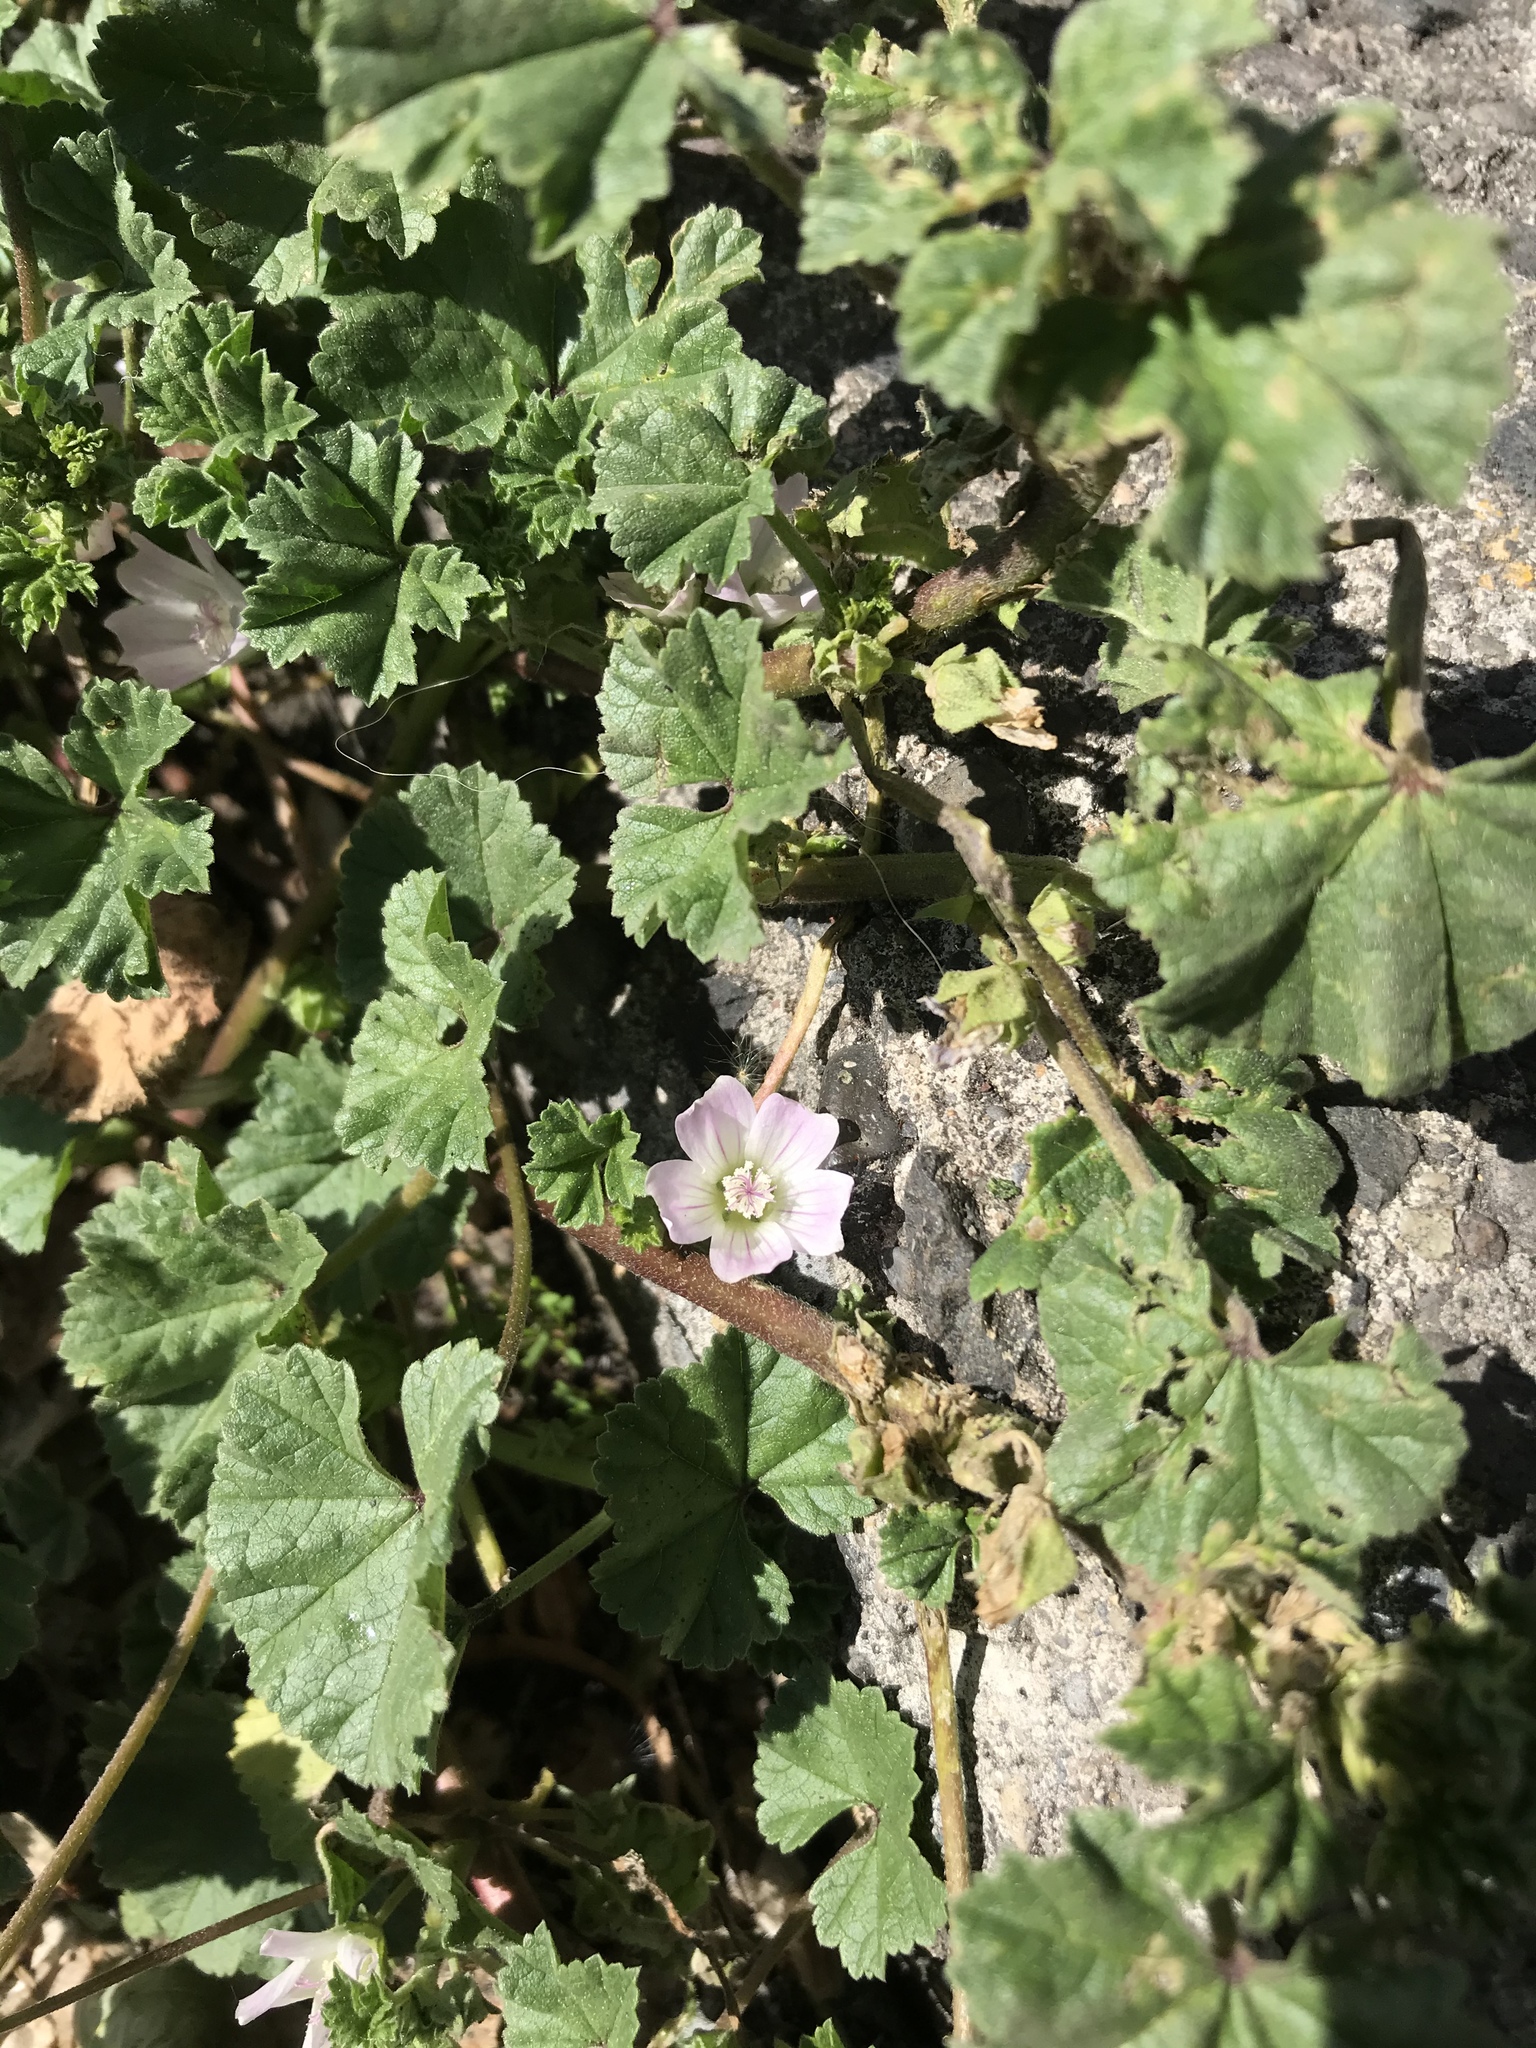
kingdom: Plantae
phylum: Tracheophyta
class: Magnoliopsida
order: Malvales
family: Malvaceae
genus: Malva
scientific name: Malva neglecta
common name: Common mallow
